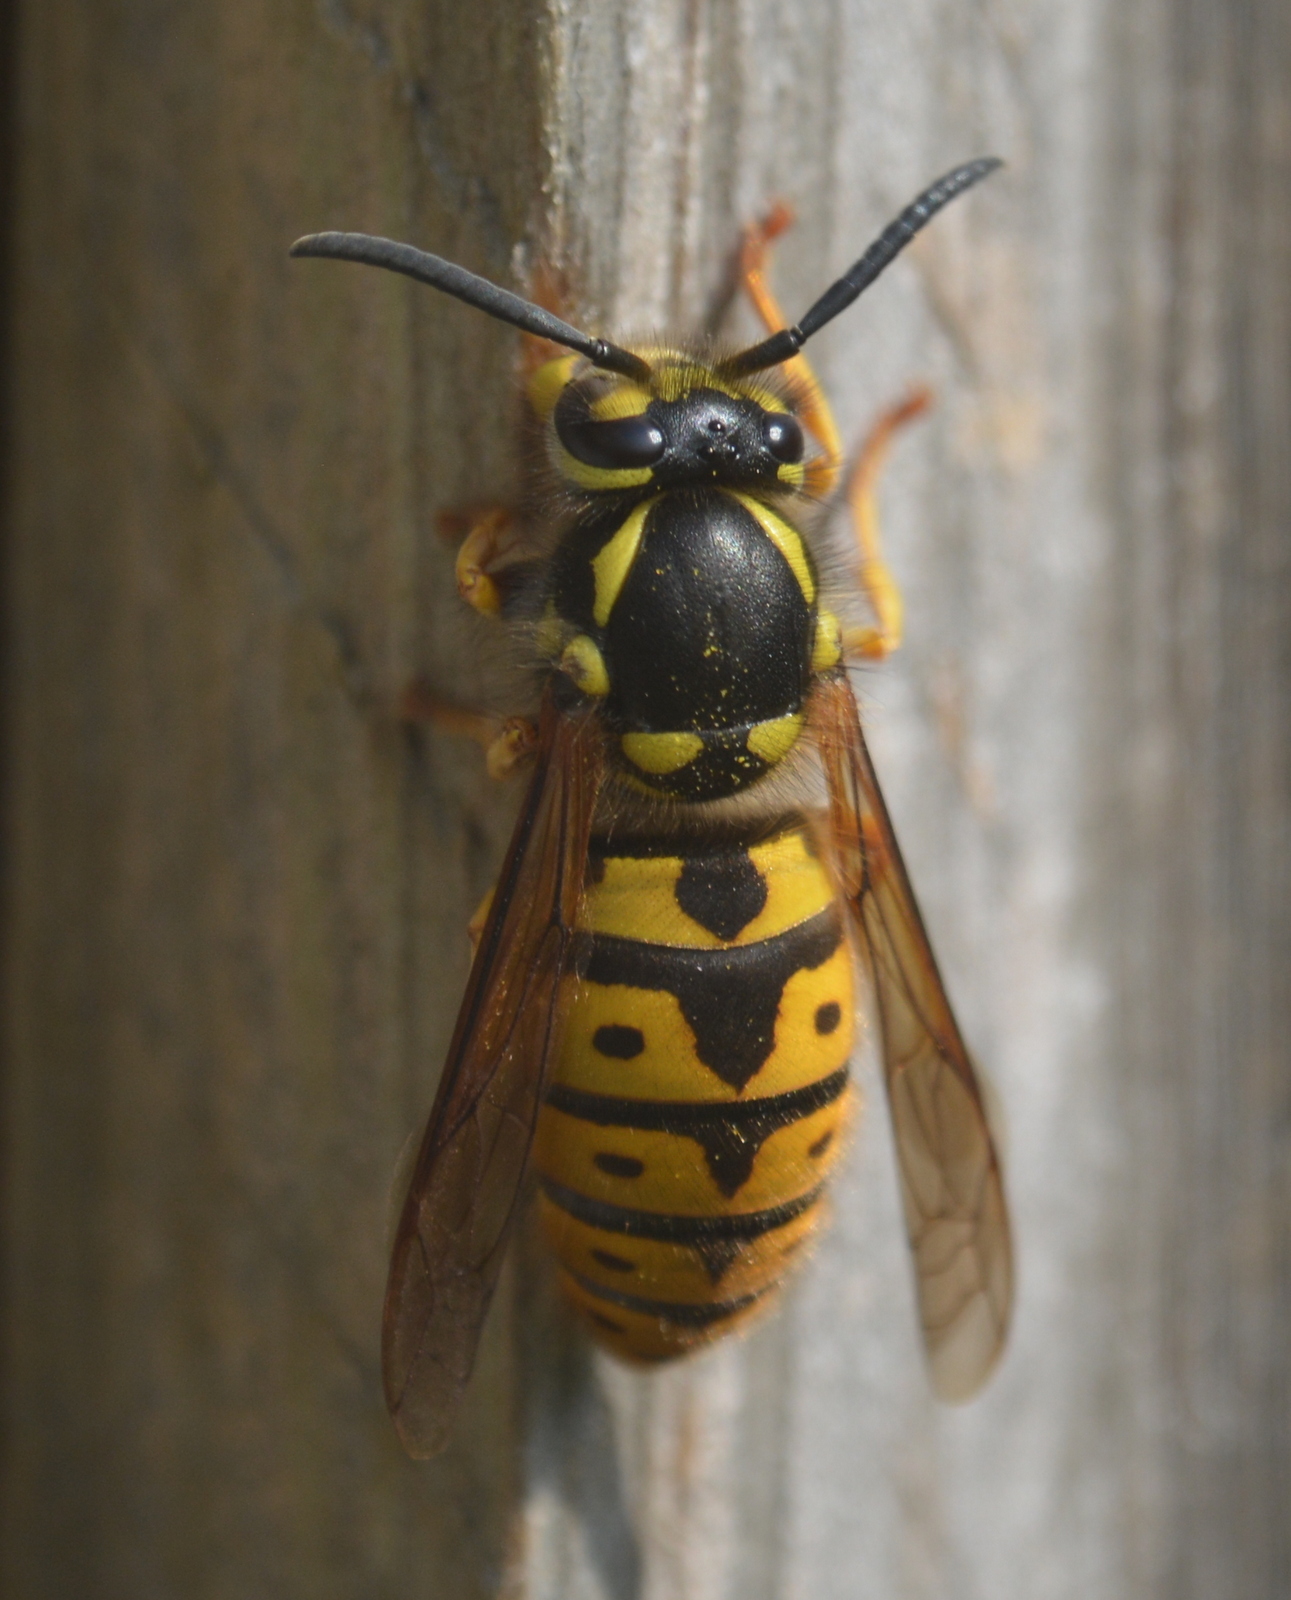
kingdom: Animalia
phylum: Arthropoda
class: Insecta
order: Hymenoptera
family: Vespidae
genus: Vespula
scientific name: Vespula germanica
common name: German wasp
